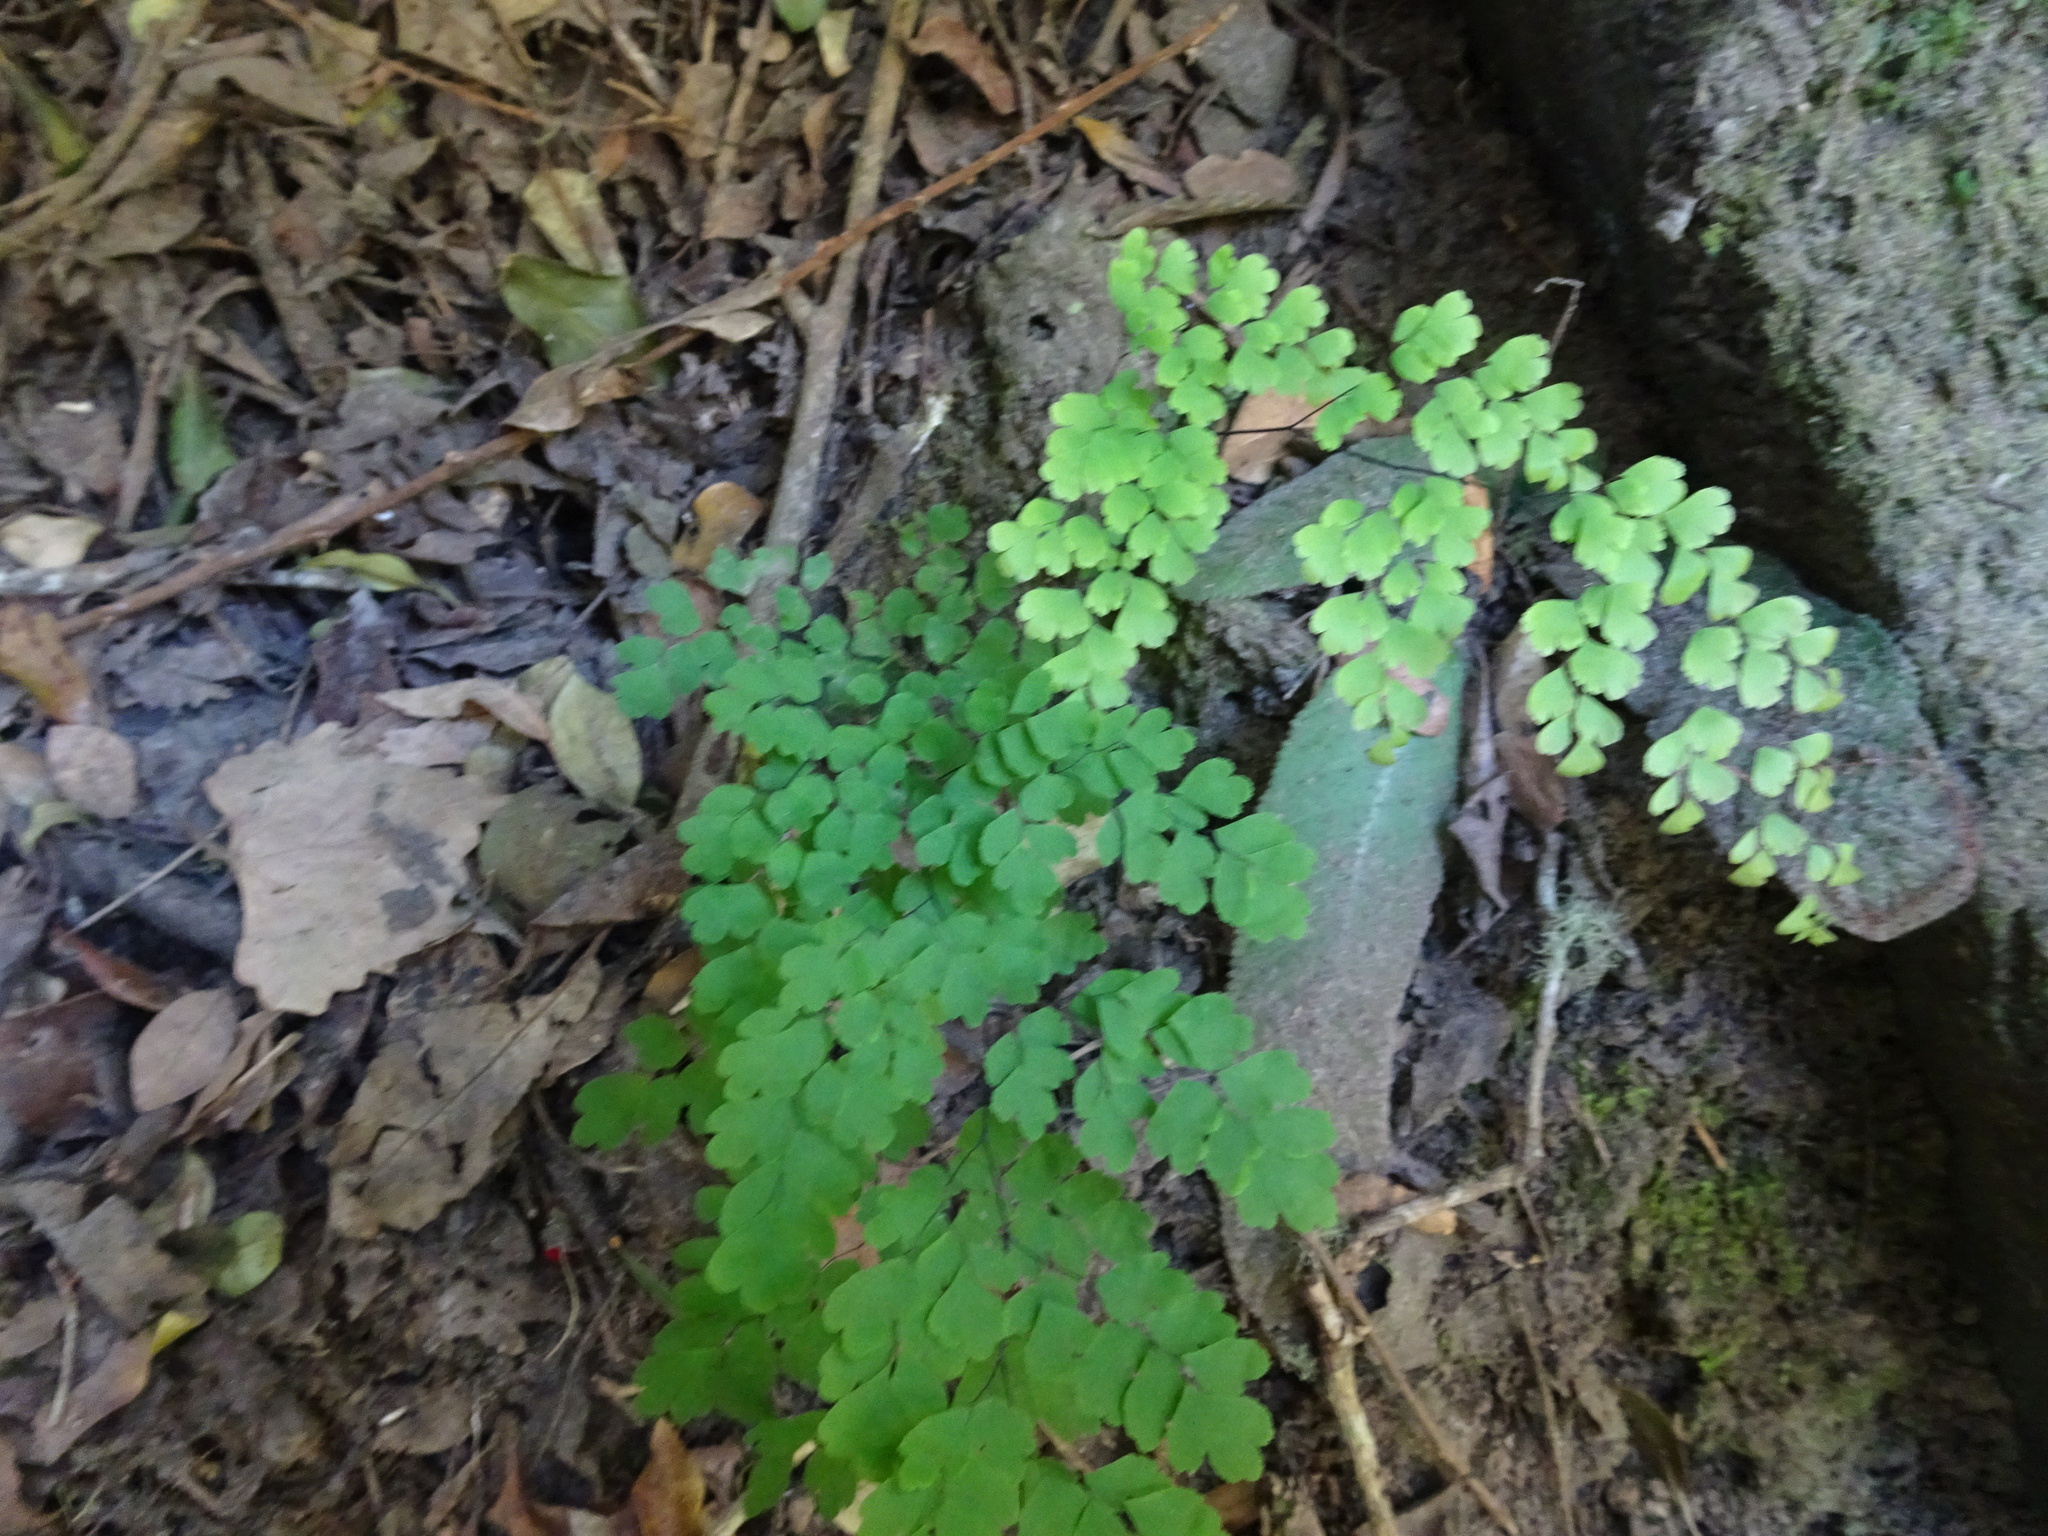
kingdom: Plantae
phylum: Tracheophyta
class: Polypodiopsida
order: Polypodiales
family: Pteridaceae
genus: Adiantum
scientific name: Adiantum raddianum
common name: Delta maidenhair fern
